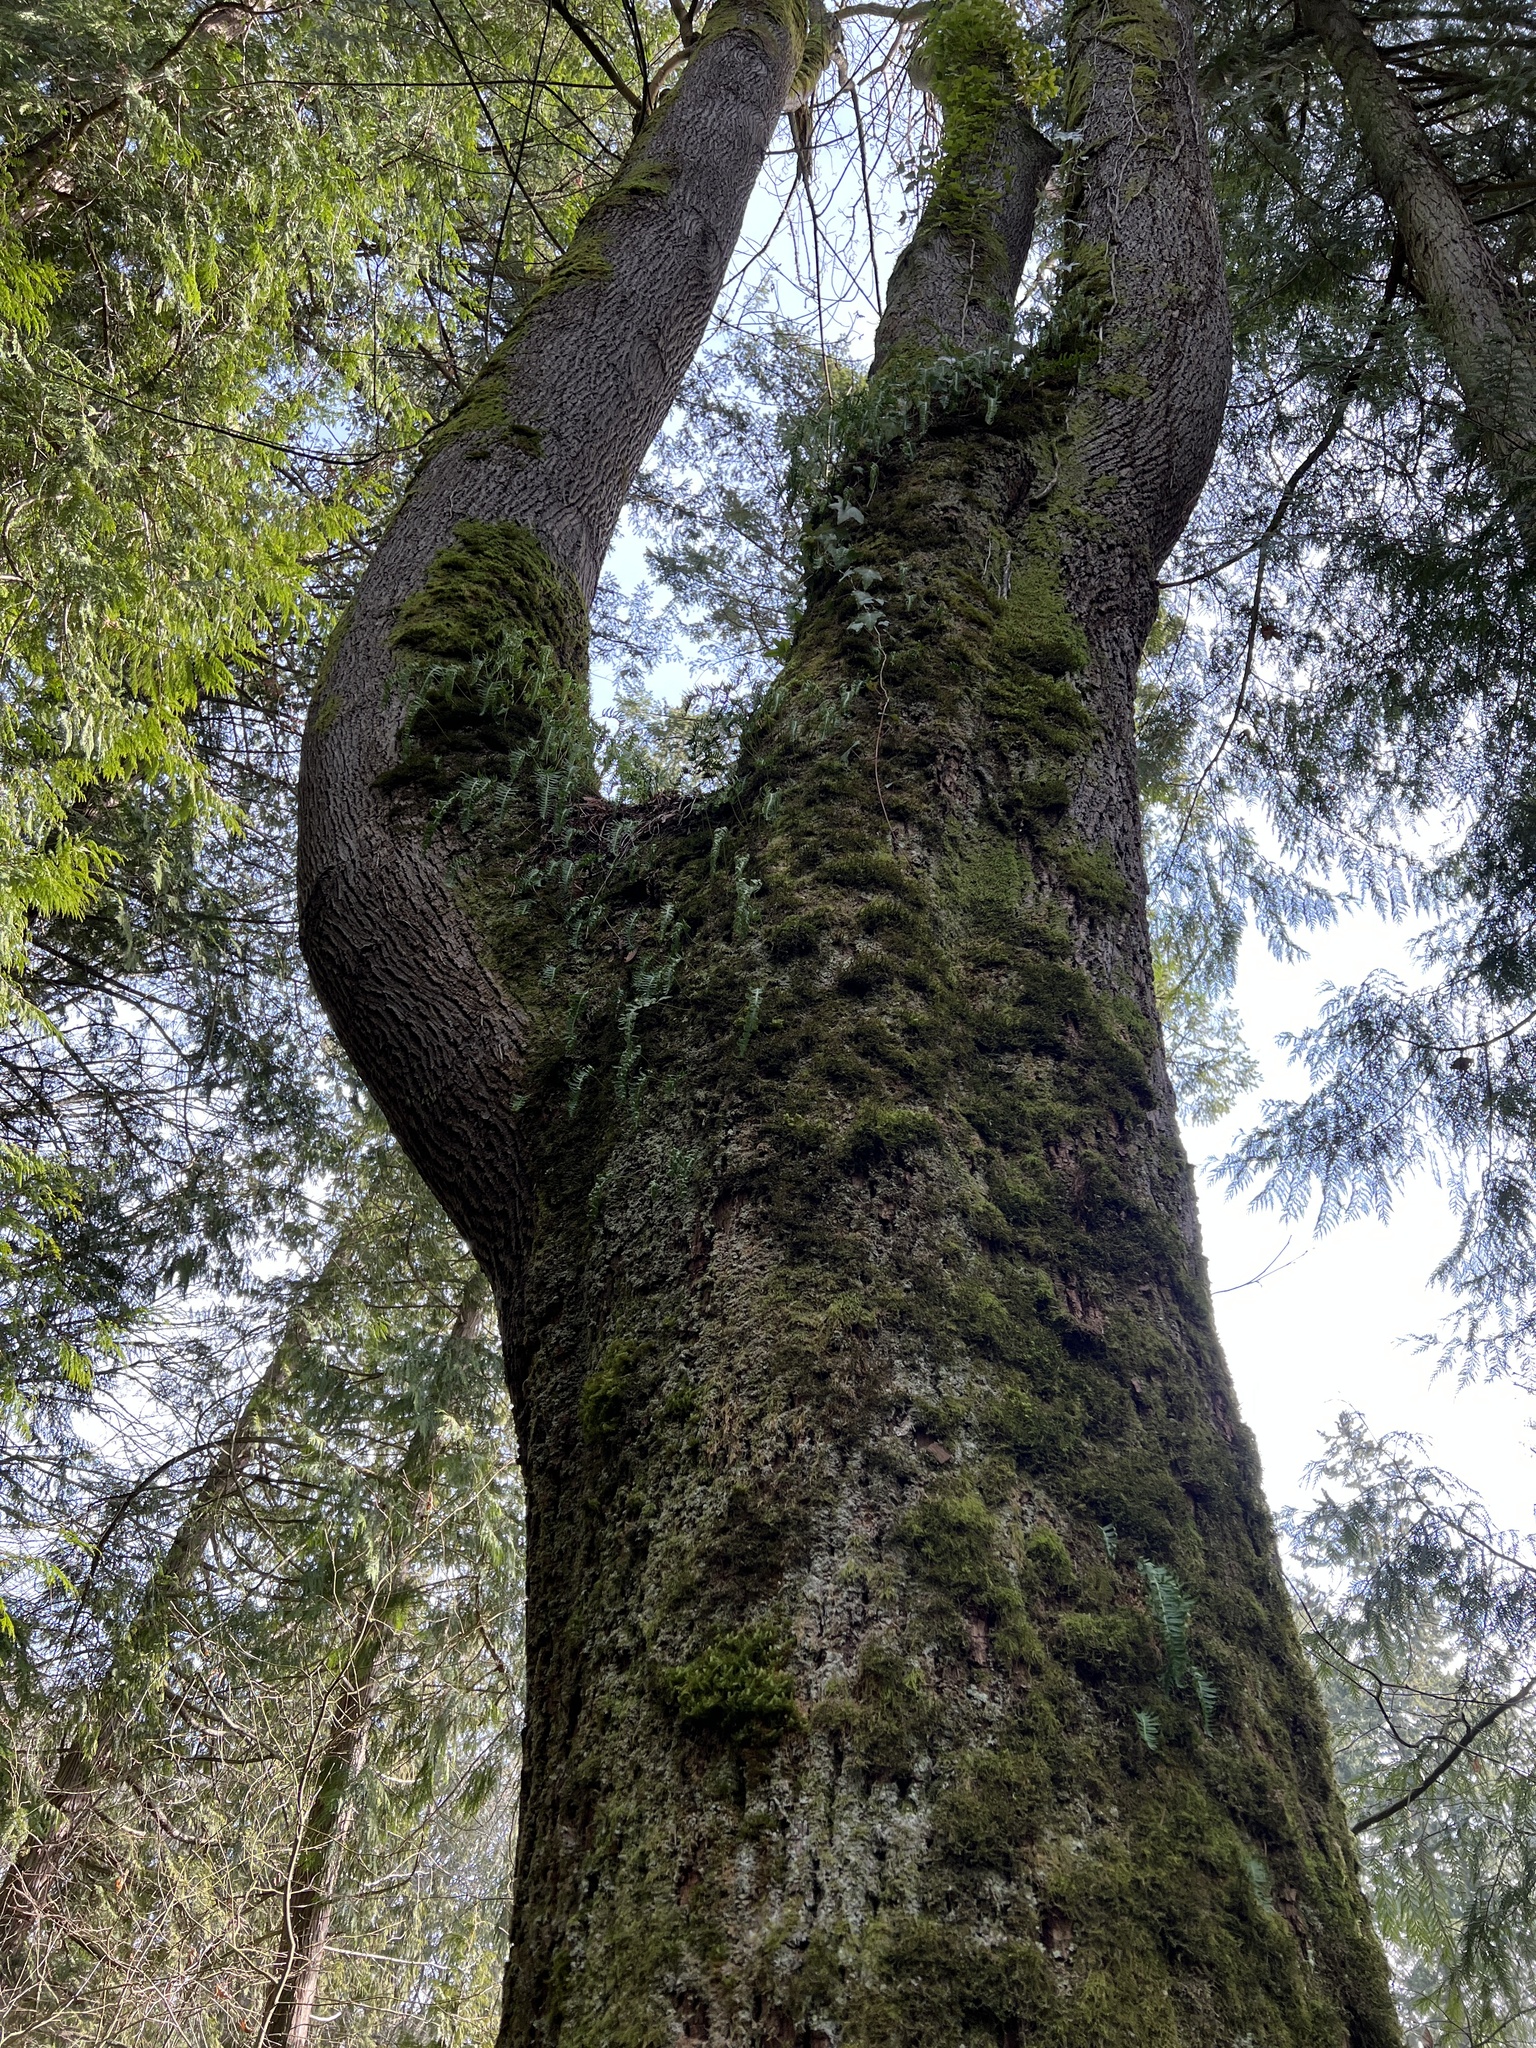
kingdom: Plantae
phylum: Tracheophyta
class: Polypodiopsida
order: Polypodiales
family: Polypodiaceae
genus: Polypodium
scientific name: Polypodium glycyrrhiza
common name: Licorice fern
